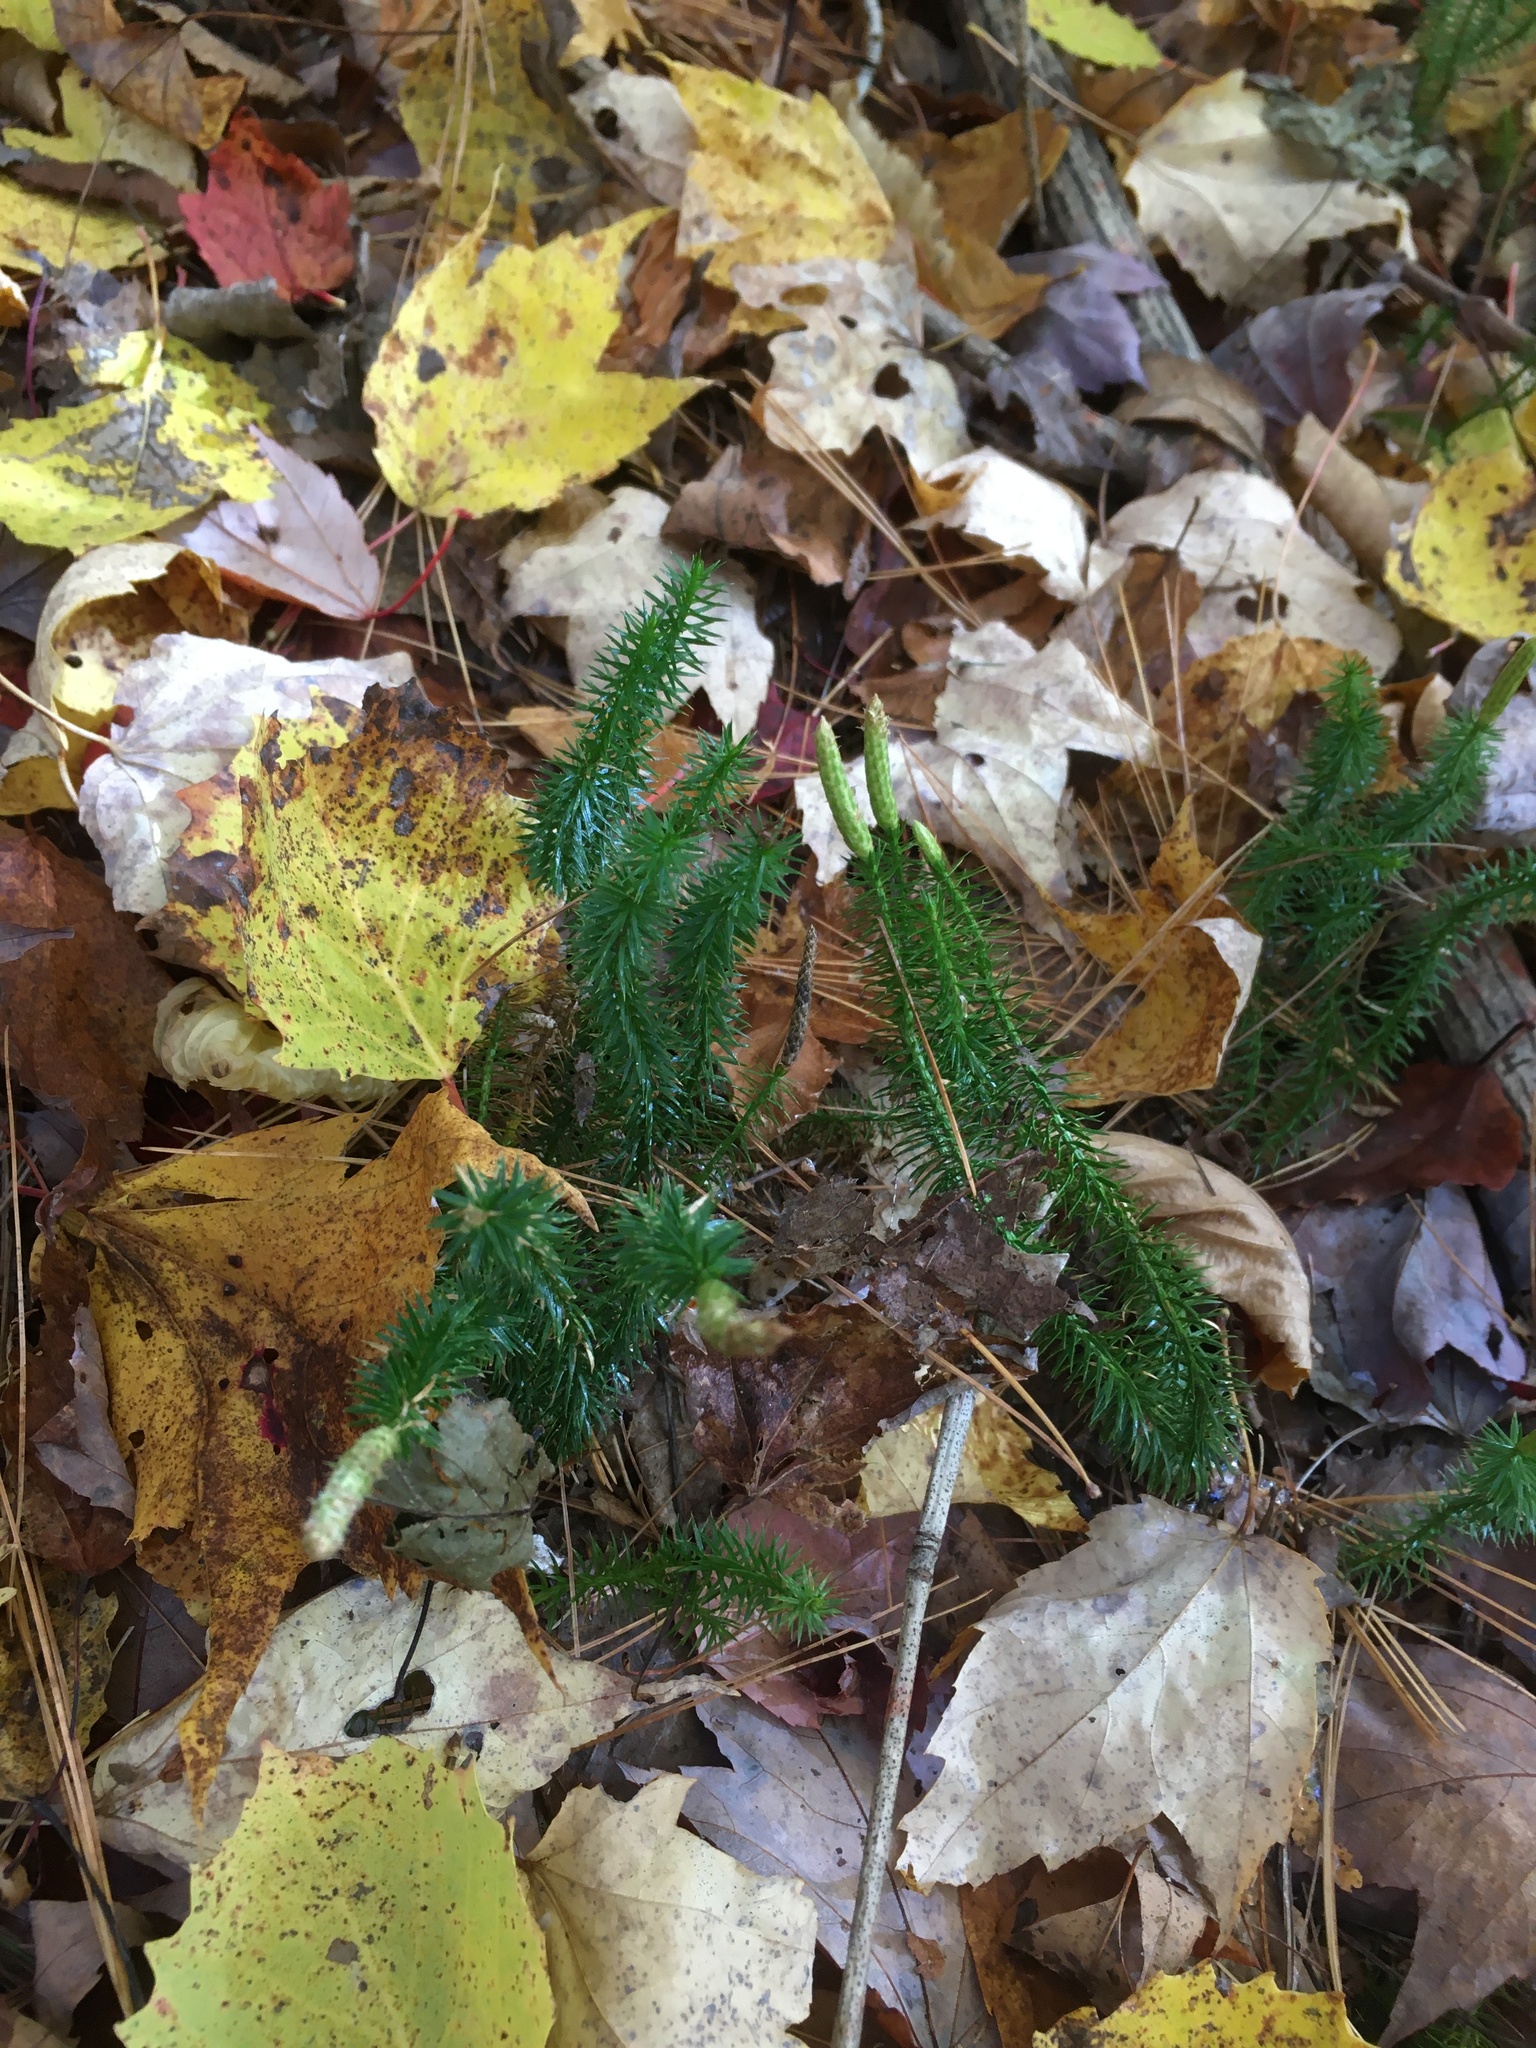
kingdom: Plantae
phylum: Tracheophyta
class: Lycopodiopsida
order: Lycopodiales
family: Lycopodiaceae
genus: Spinulum
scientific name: Spinulum annotinum
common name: Interrupted club-moss
